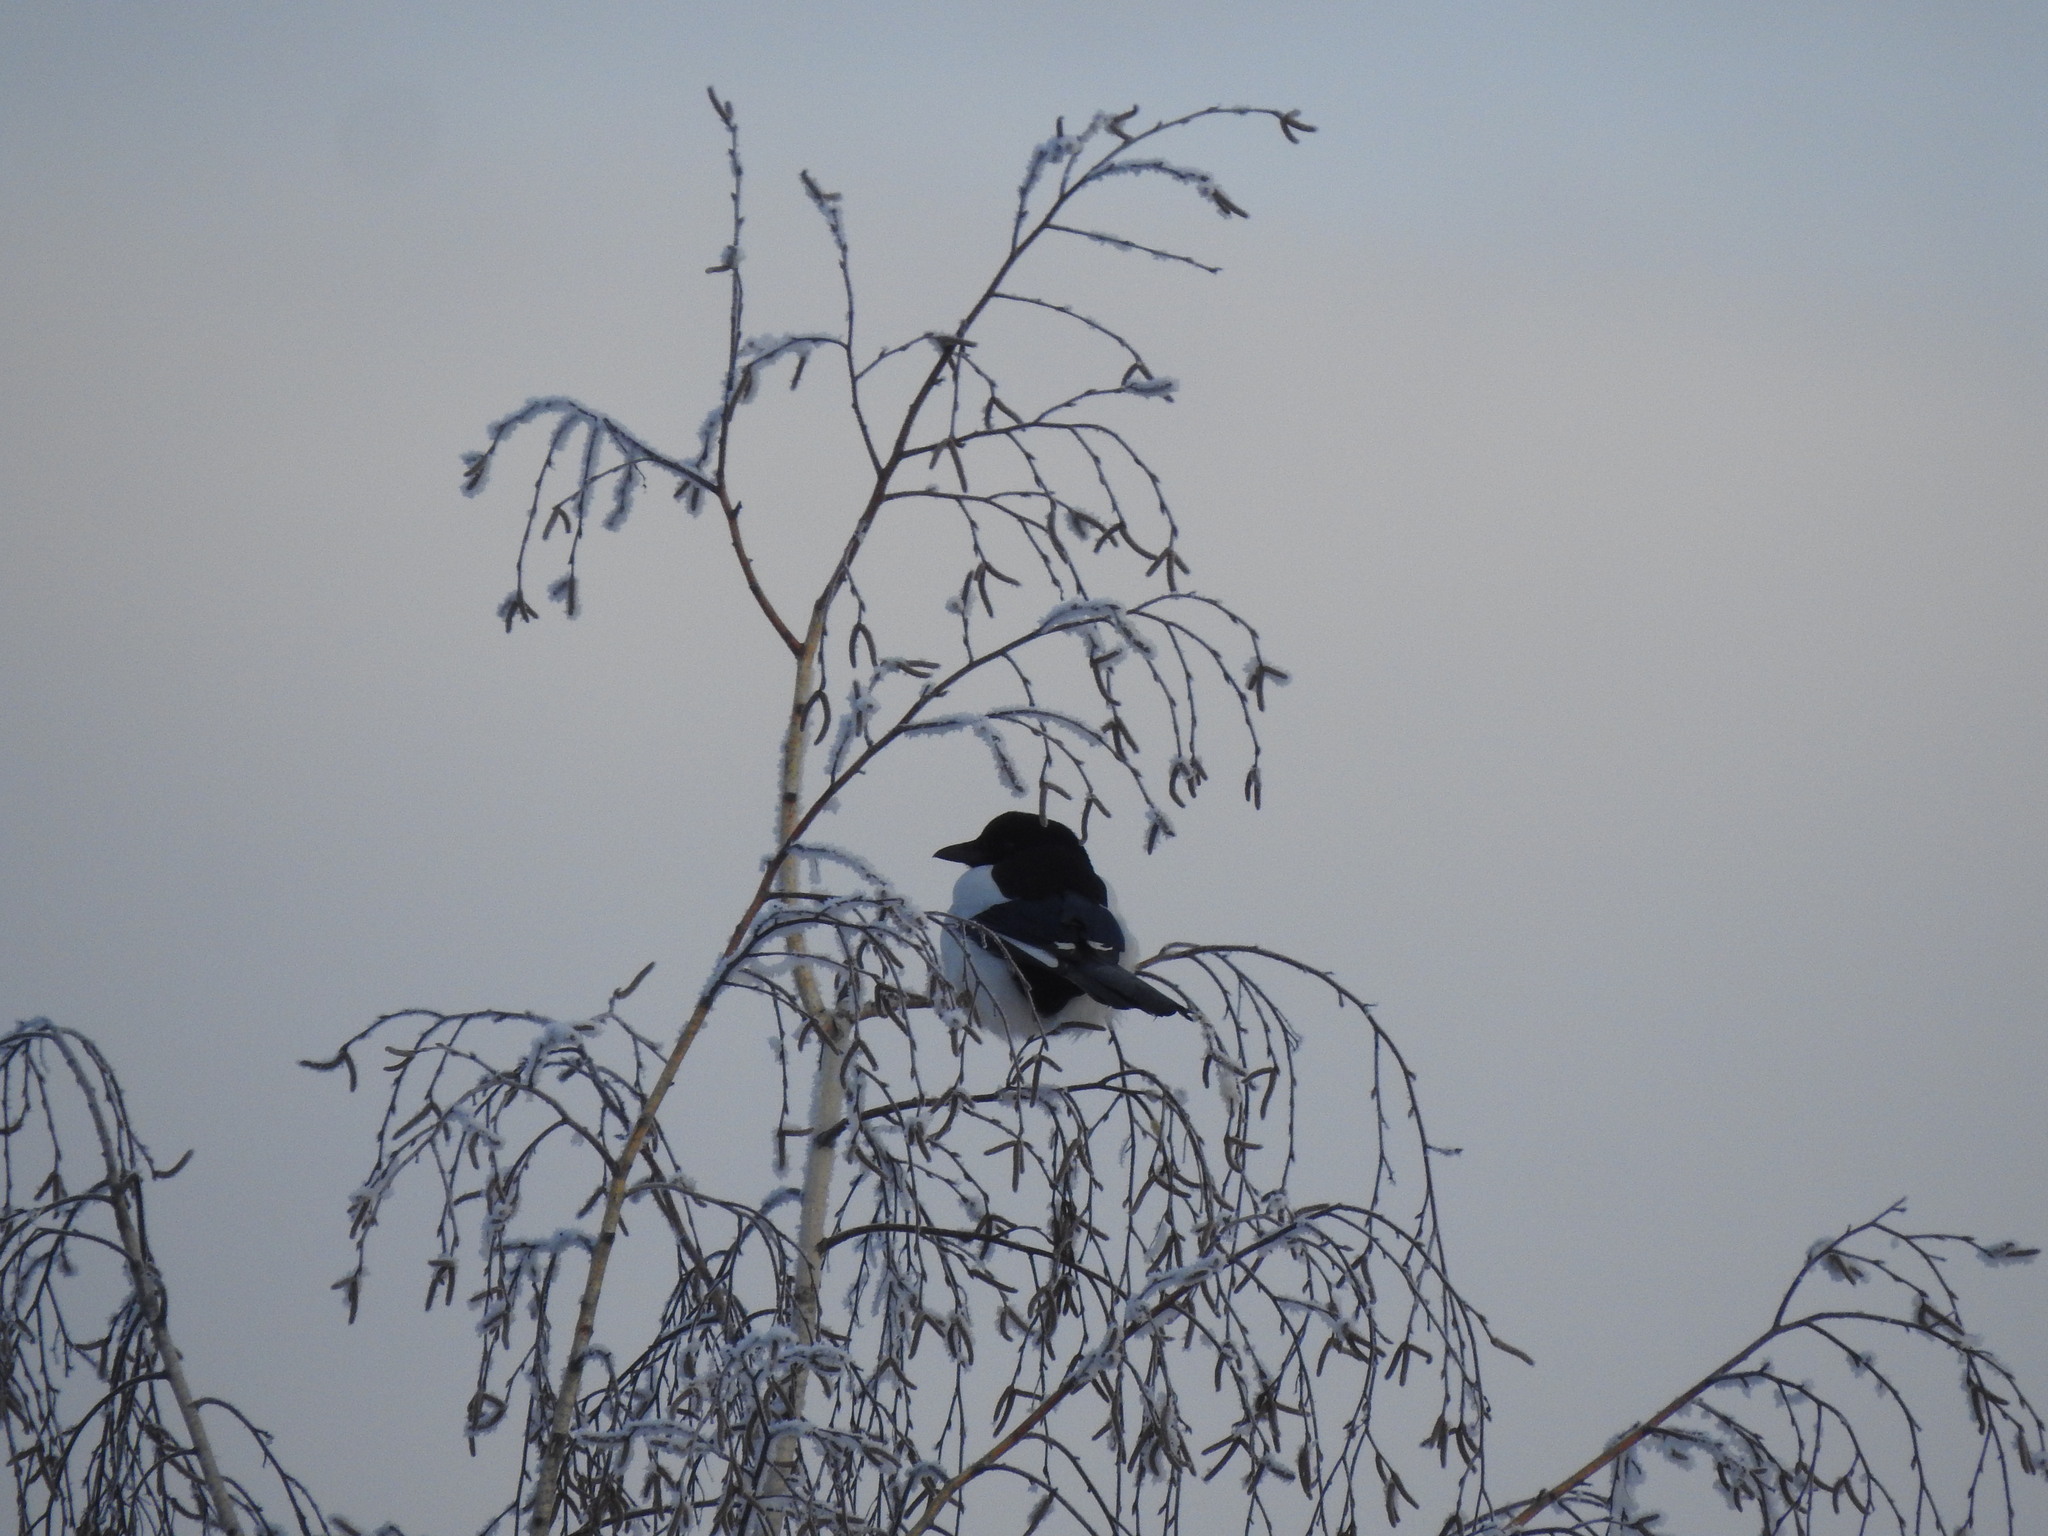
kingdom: Animalia
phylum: Chordata
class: Aves
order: Passeriformes
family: Corvidae
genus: Pica
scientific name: Pica pica
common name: Eurasian magpie
